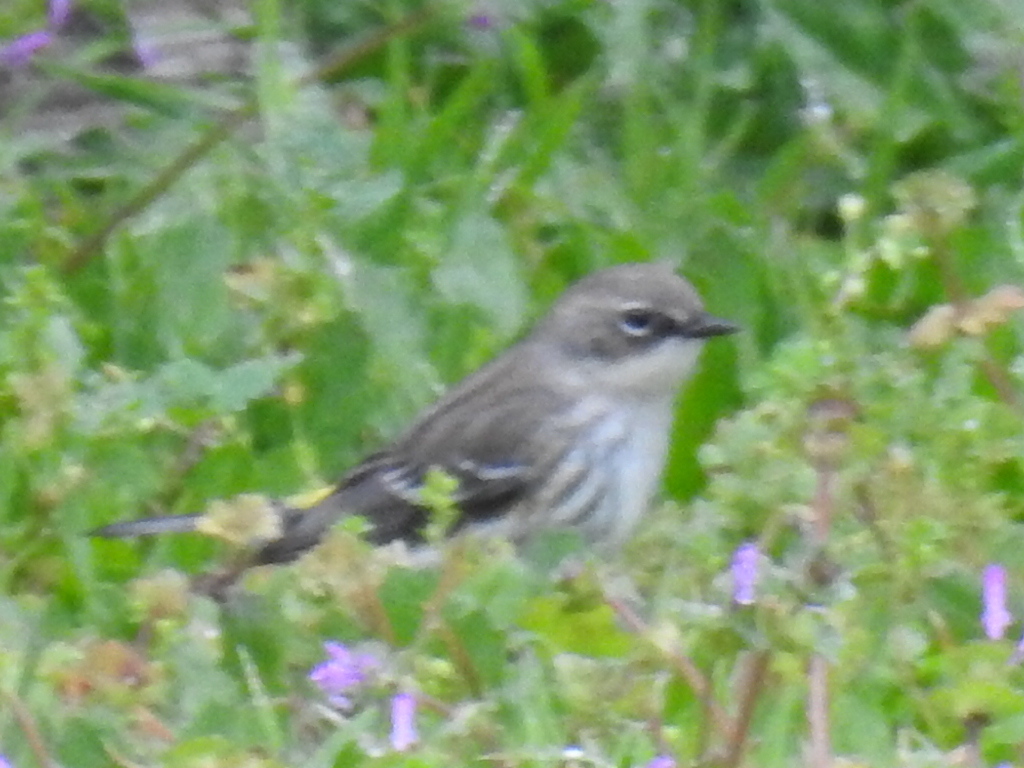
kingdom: Animalia
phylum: Chordata
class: Aves
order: Passeriformes
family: Parulidae
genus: Setophaga
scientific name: Setophaga coronata
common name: Myrtle warbler
